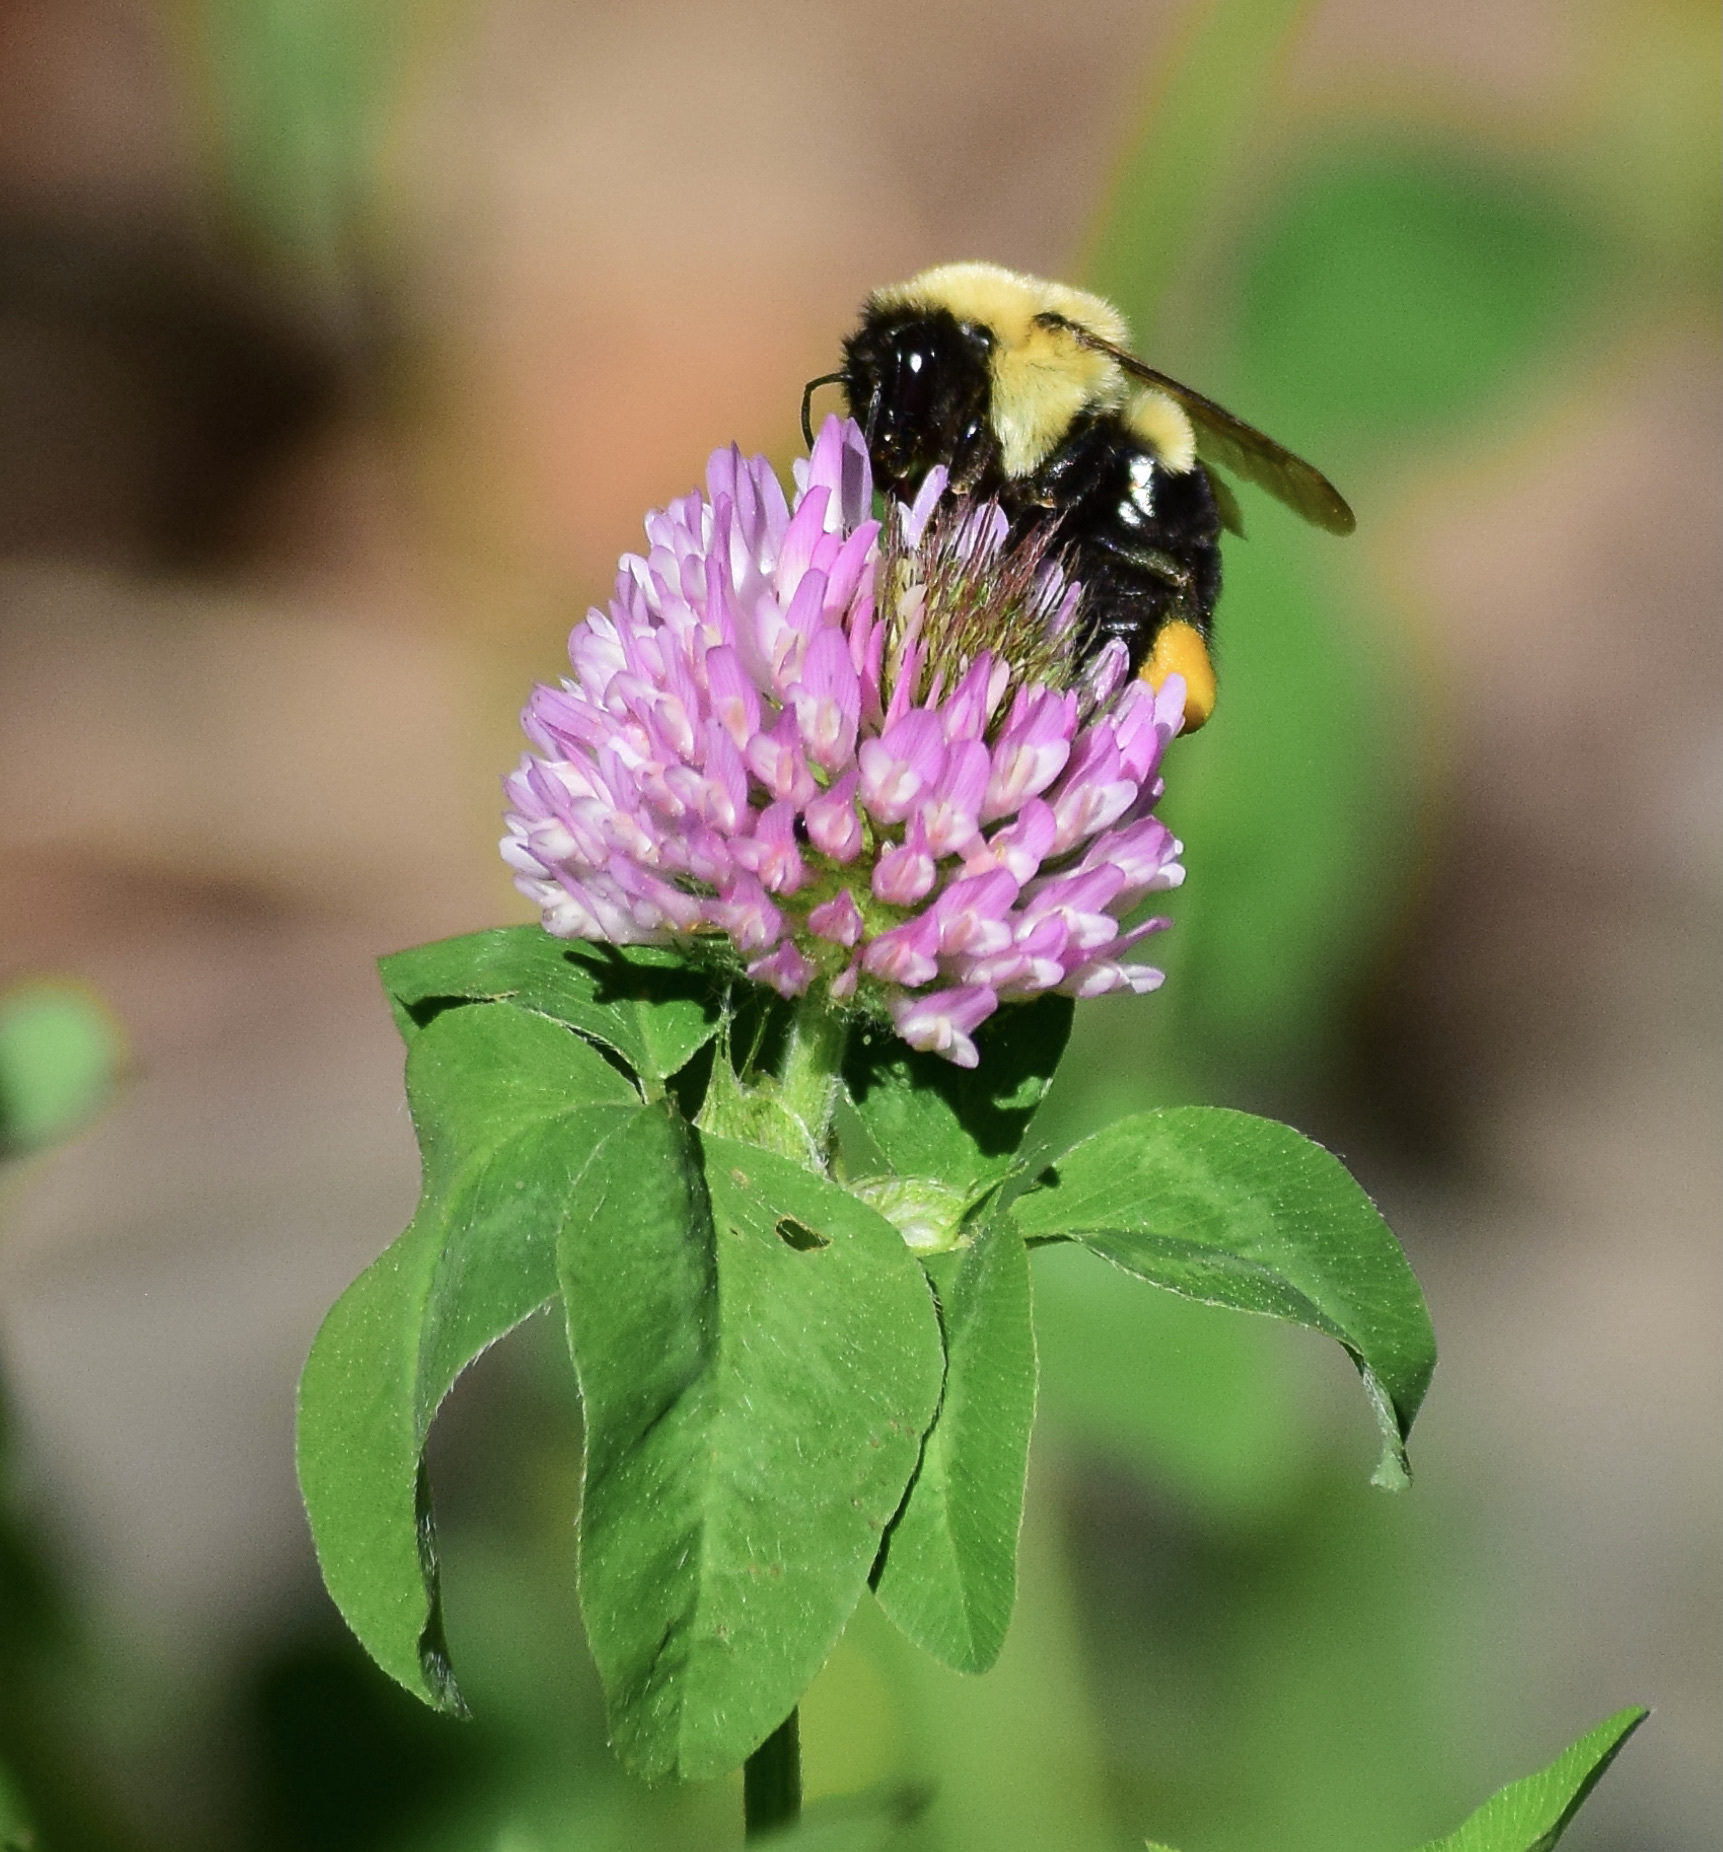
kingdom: Animalia
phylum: Arthropoda
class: Insecta
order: Hymenoptera
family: Apidae
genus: Bombus
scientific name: Bombus impatiens
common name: Common eastern bumble bee
